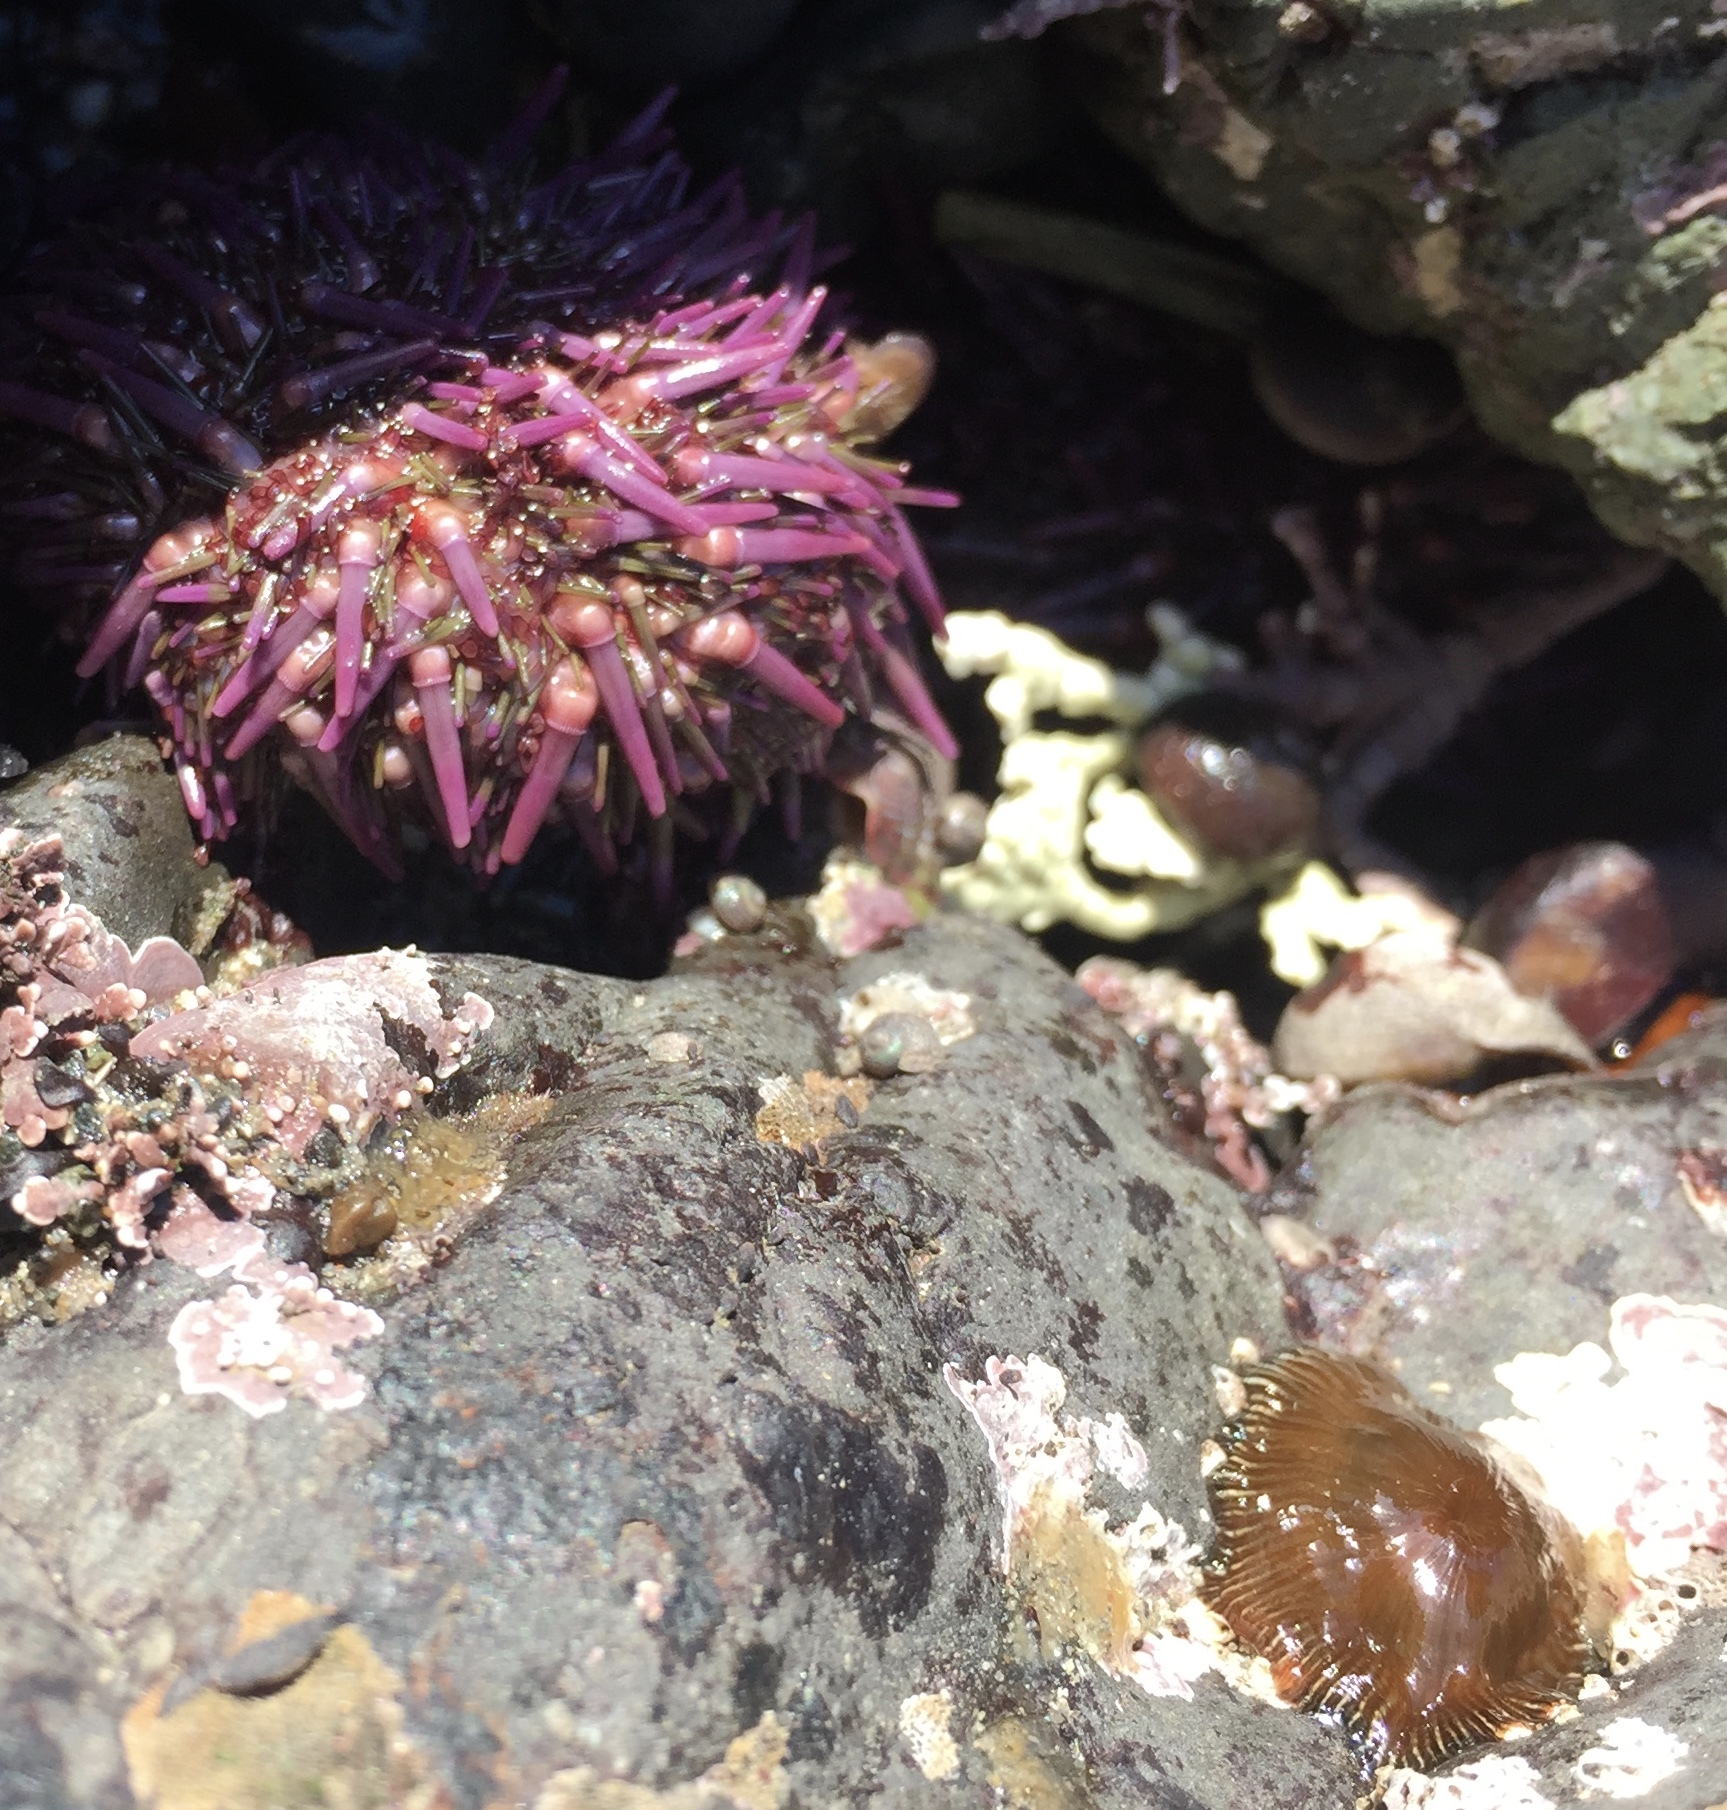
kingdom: Animalia
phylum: Echinodermata
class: Echinoidea
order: Camarodonta
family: Strongylocentrotidae
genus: Strongylocentrotus
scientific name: Strongylocentrotus purpuratus
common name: Purple sea urchin
